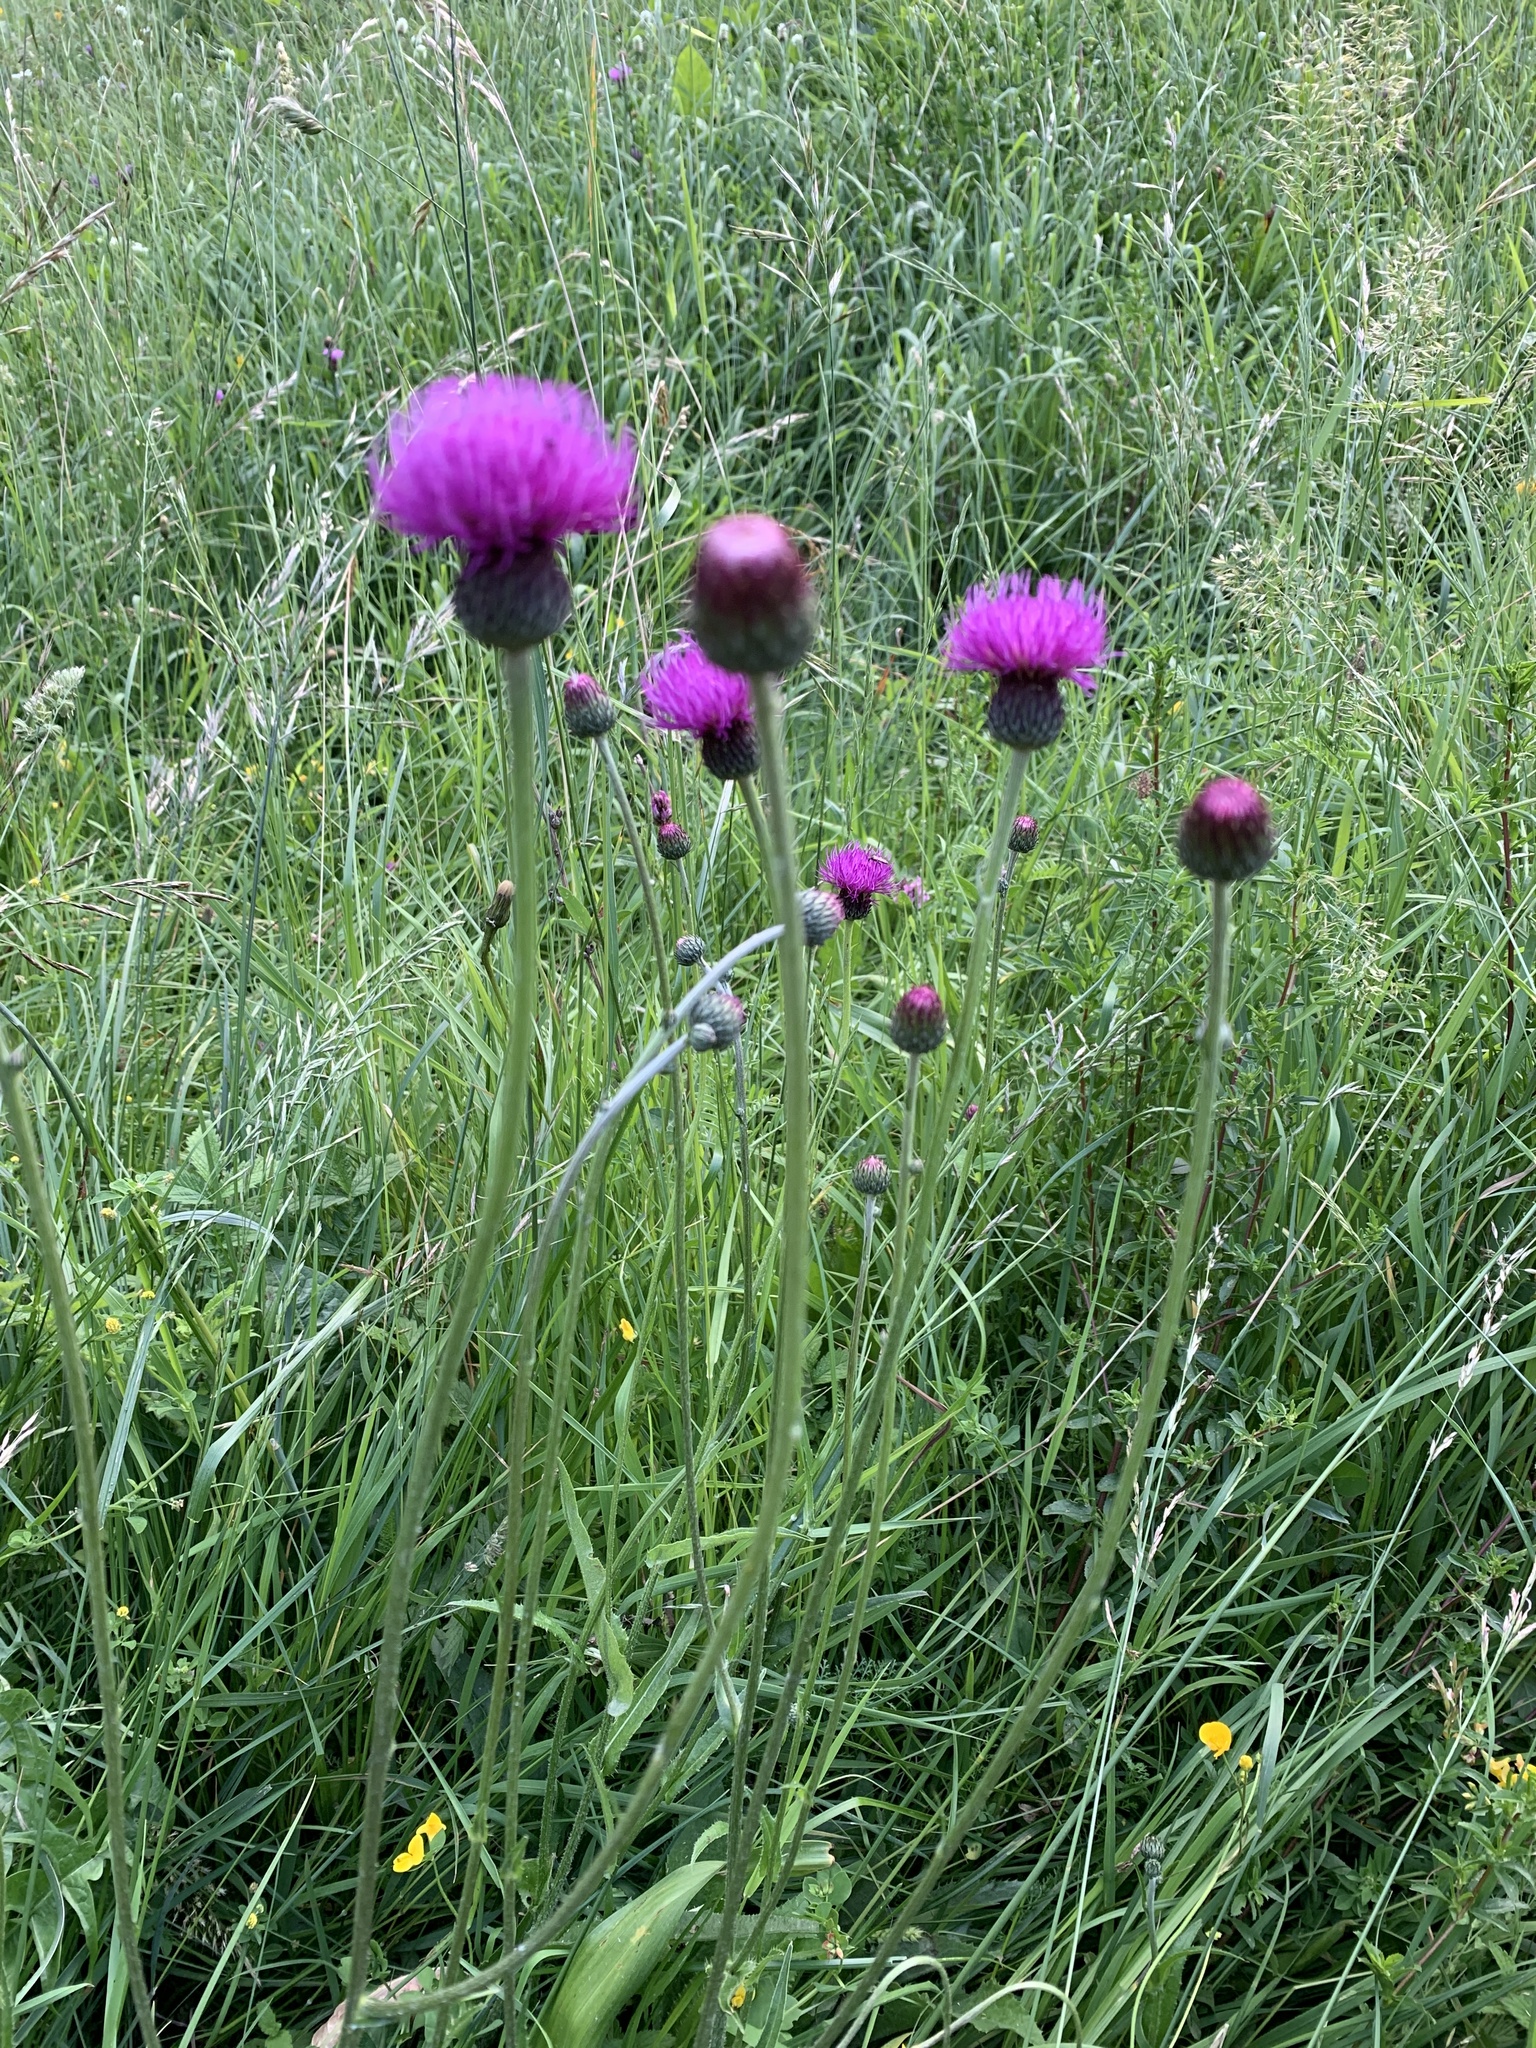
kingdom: Plantae
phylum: Tracheophyta
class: Magnoliopsida
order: Asterales
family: Asteraceae
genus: Cirsium
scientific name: Cirsium canum
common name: Queen anne's thistle
